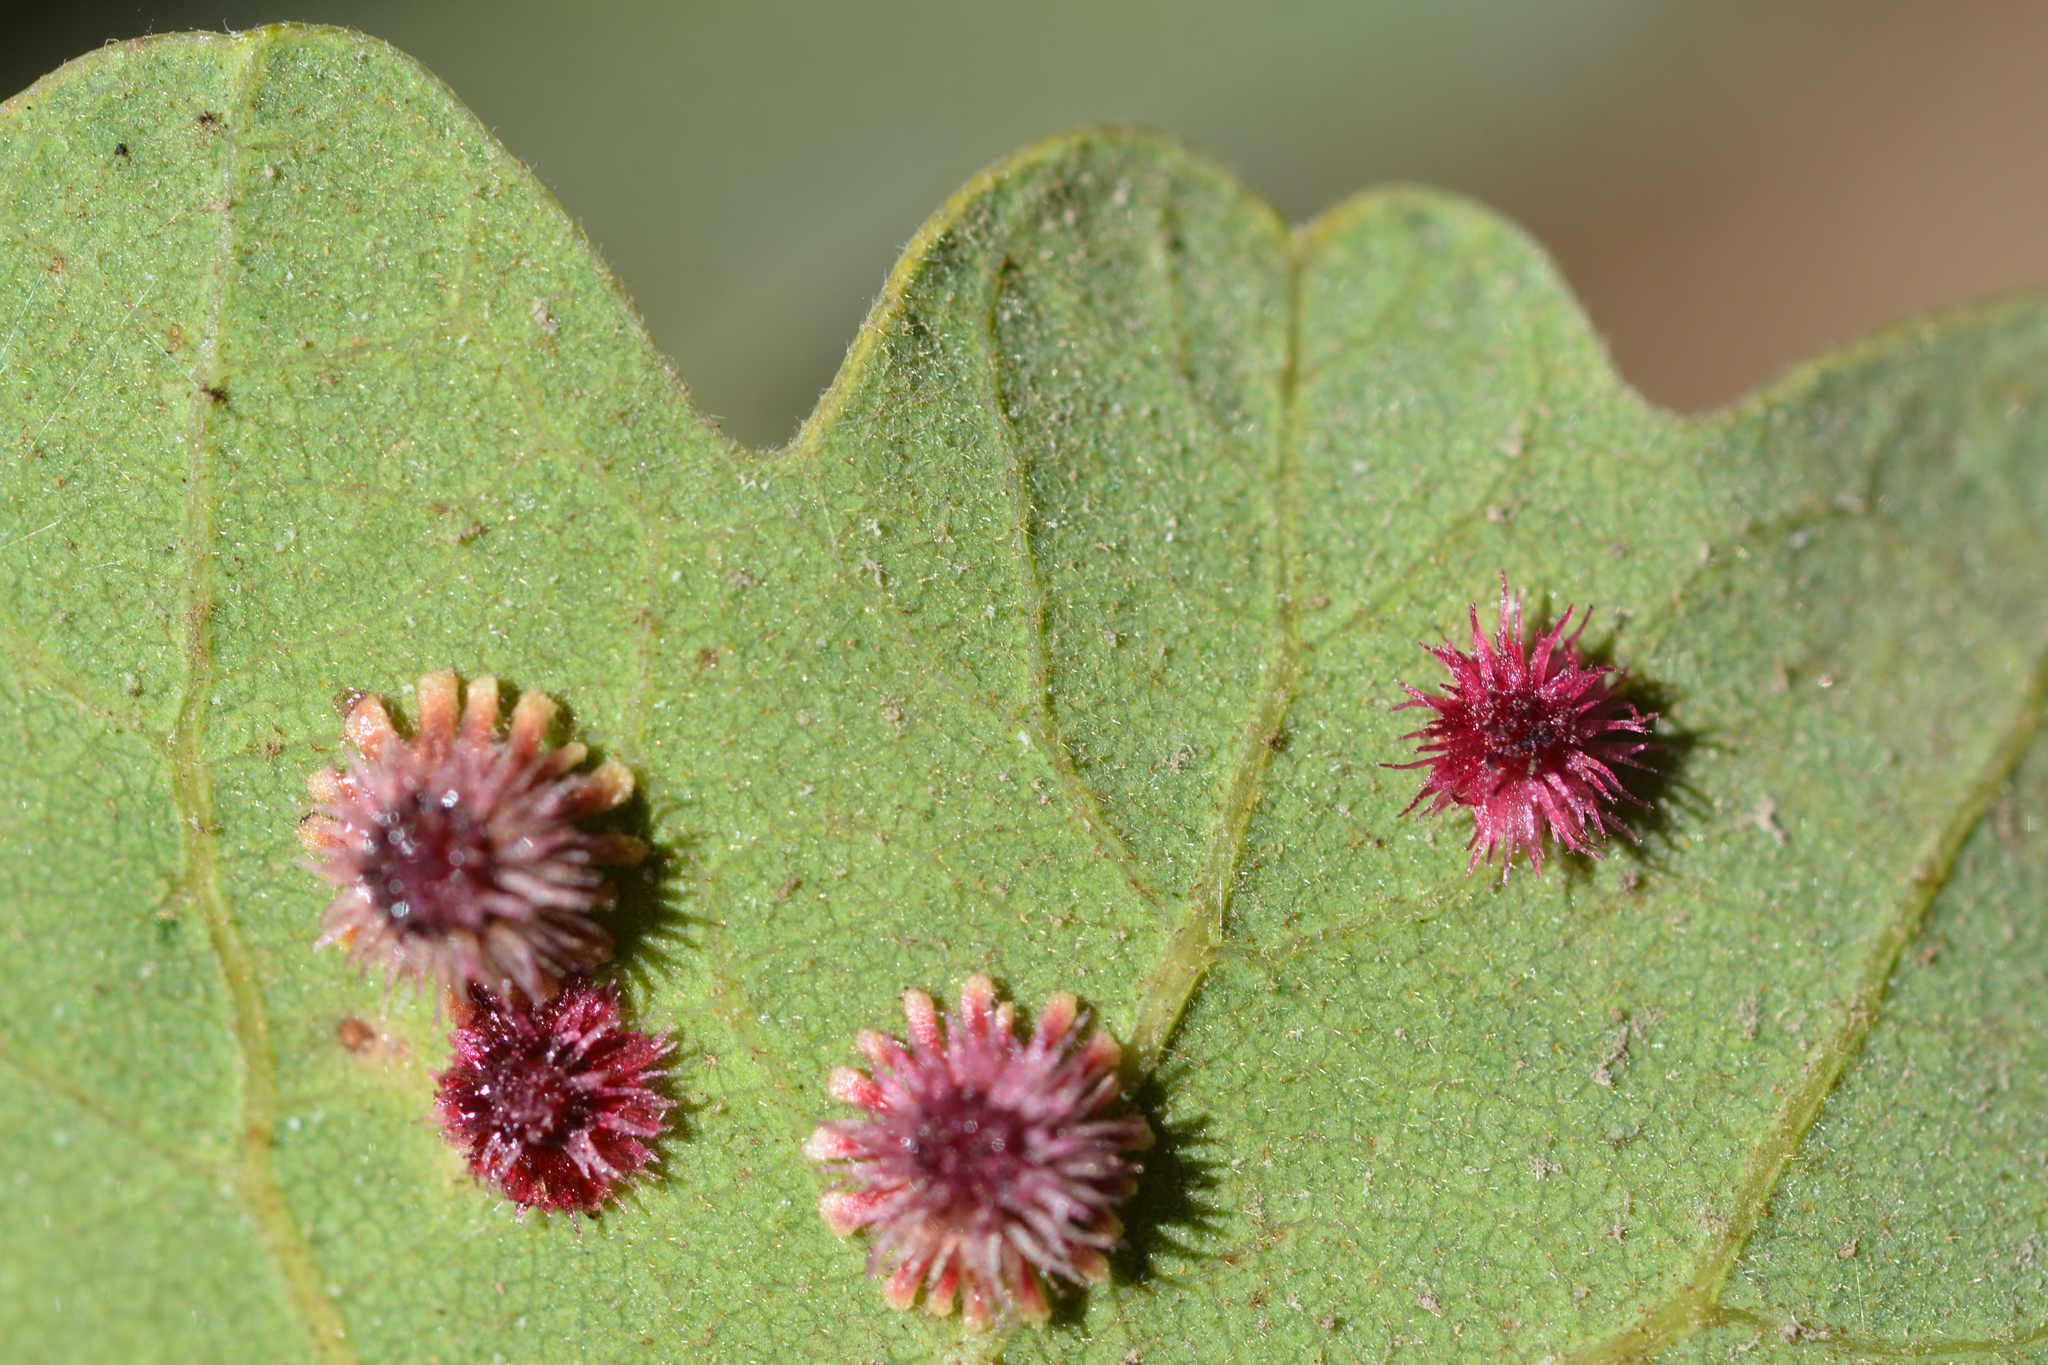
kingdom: Animalia
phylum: Arthropoda
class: Insecta
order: Hymenoptera
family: Cynipidae
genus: Andricus
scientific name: Andricus
